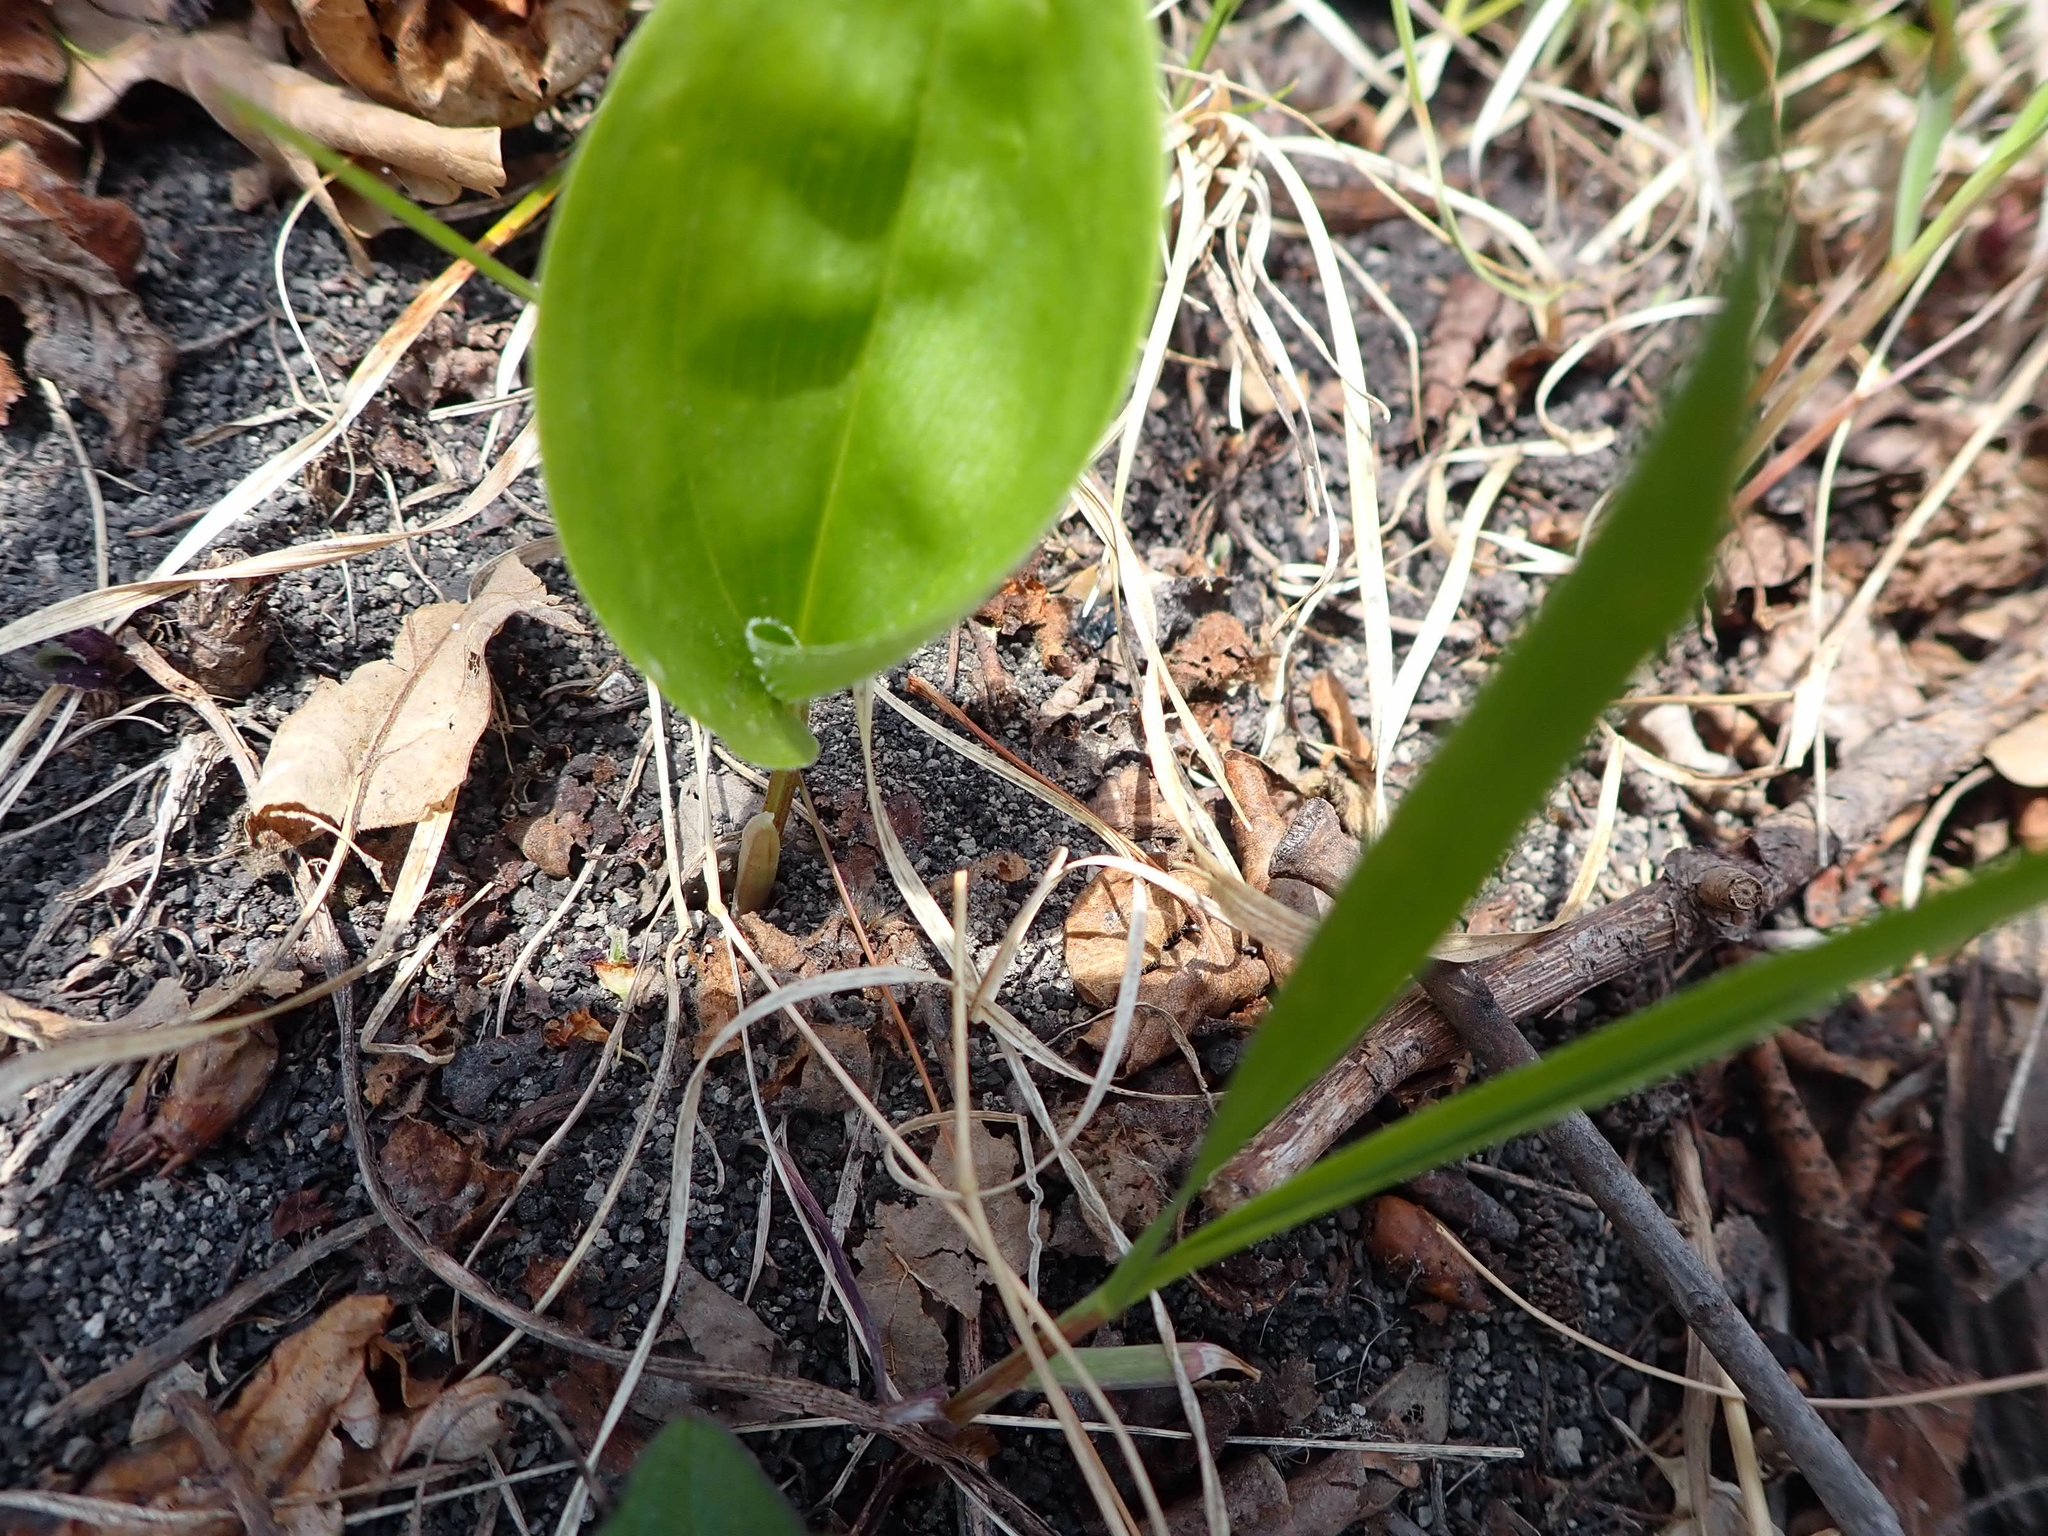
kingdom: Plantae
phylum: Tracheophyta
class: Liliopsida
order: Asparagales
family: Asparagaceae
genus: Maianthemum
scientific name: Maianthemum canadense
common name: False lily-of-the-valley
